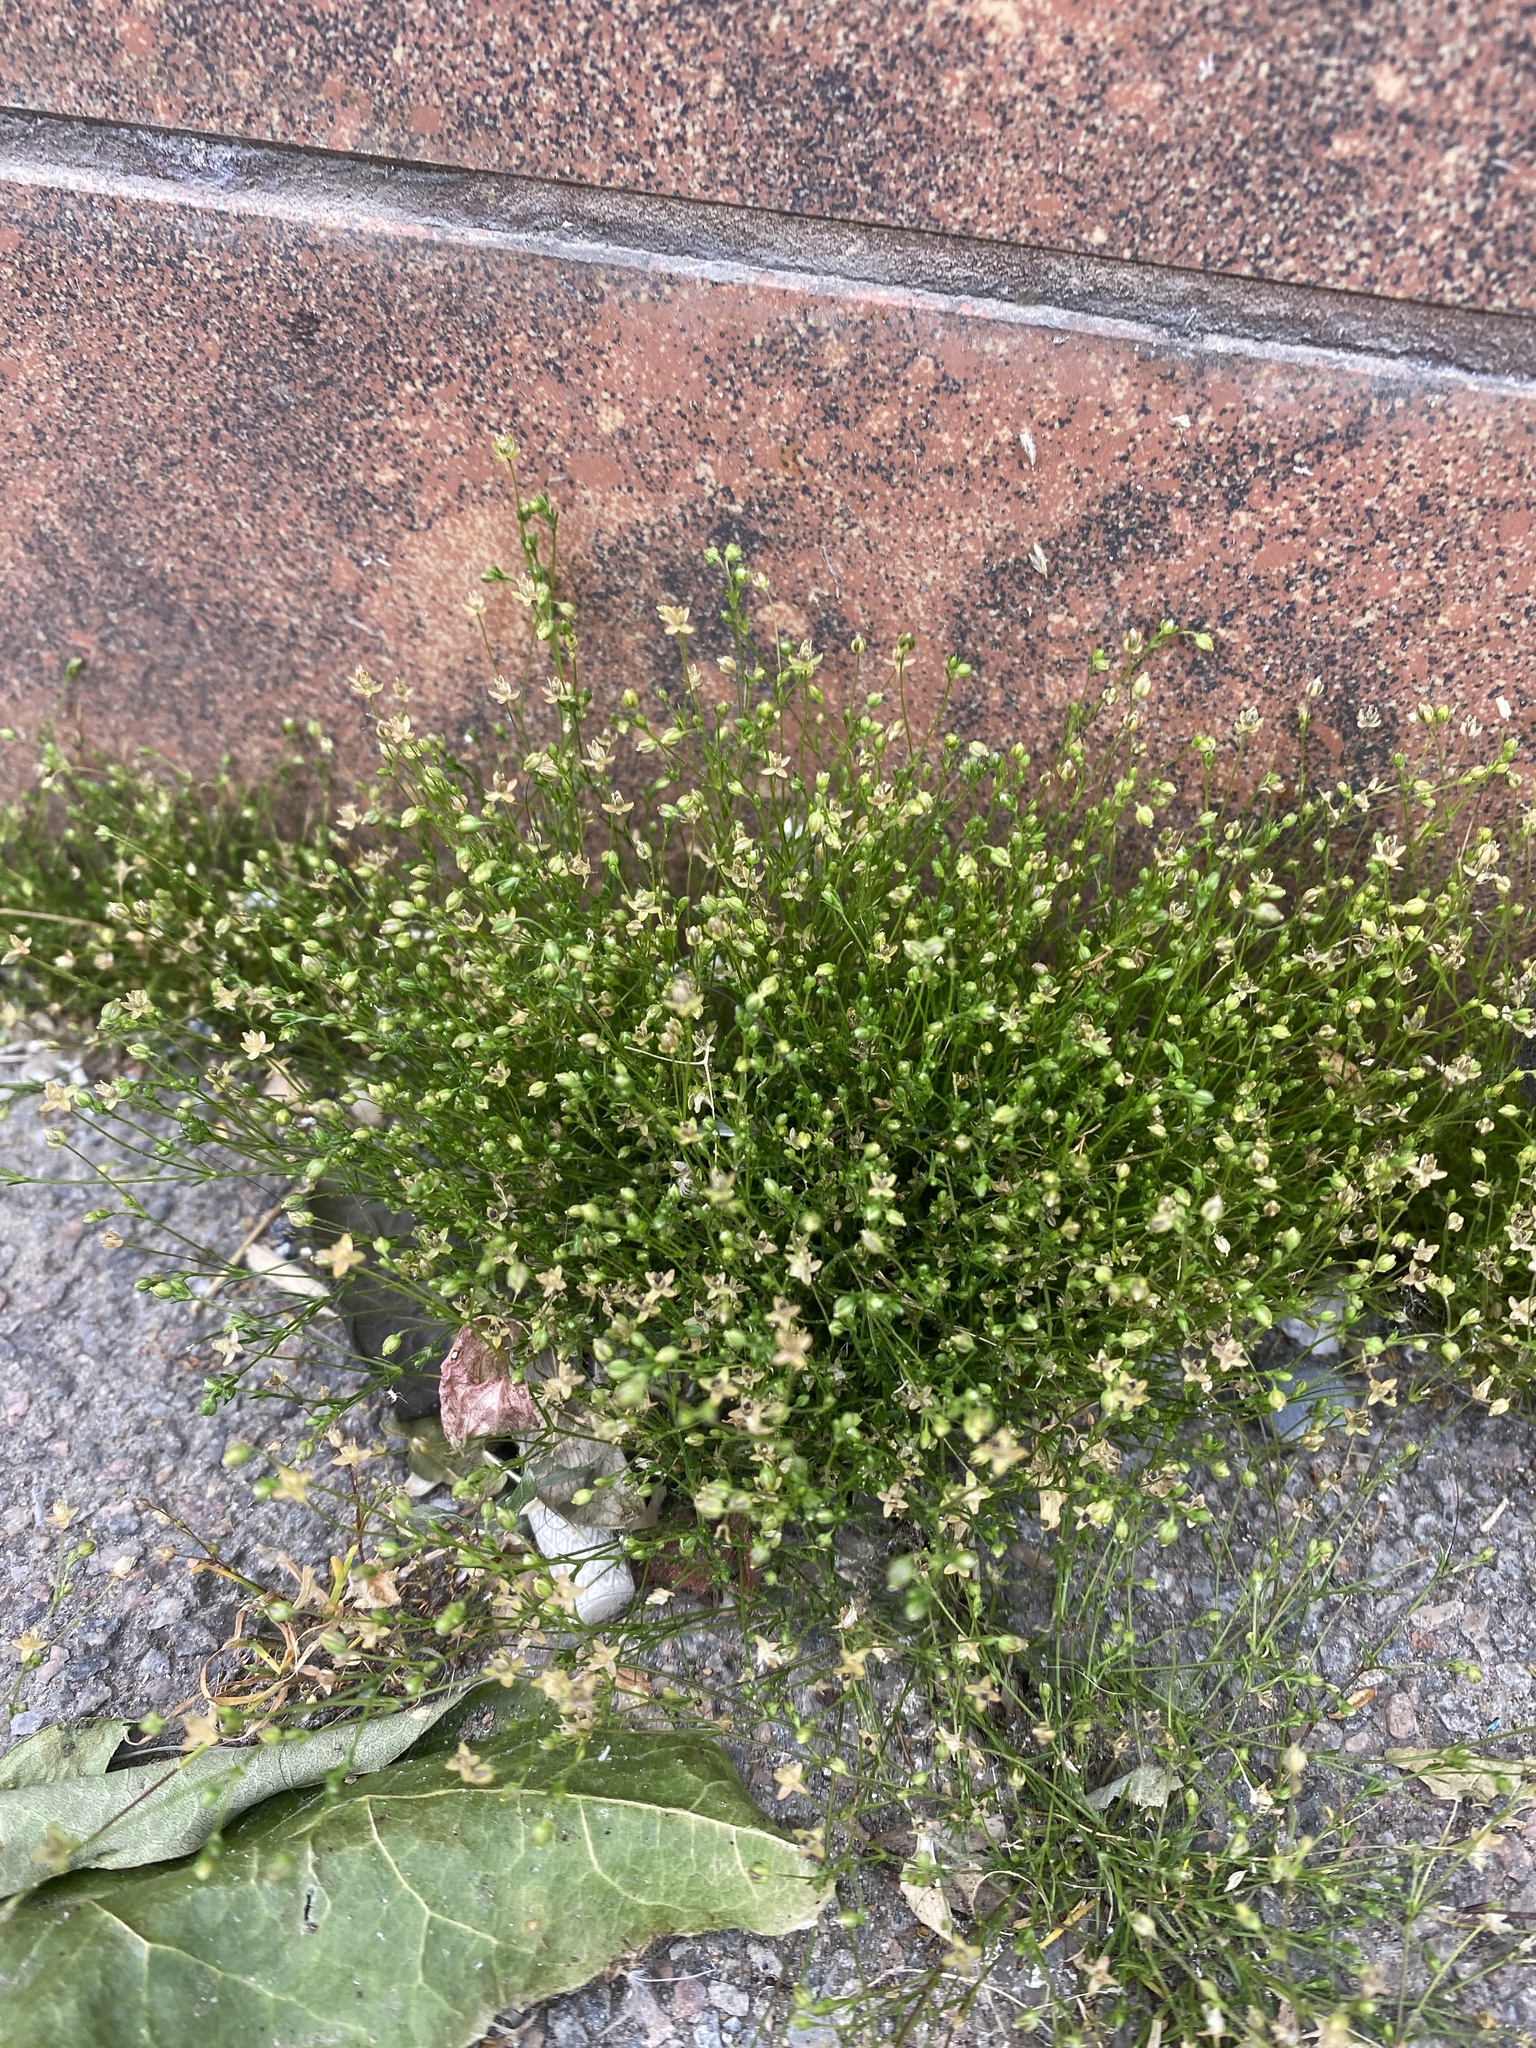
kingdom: Plantae
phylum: Tracheophyta
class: Magnoliopsida
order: Caryophyllales
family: Caryophyllaceae
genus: Sagina
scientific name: Sagina procumbens
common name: Procumbent pearlwort
